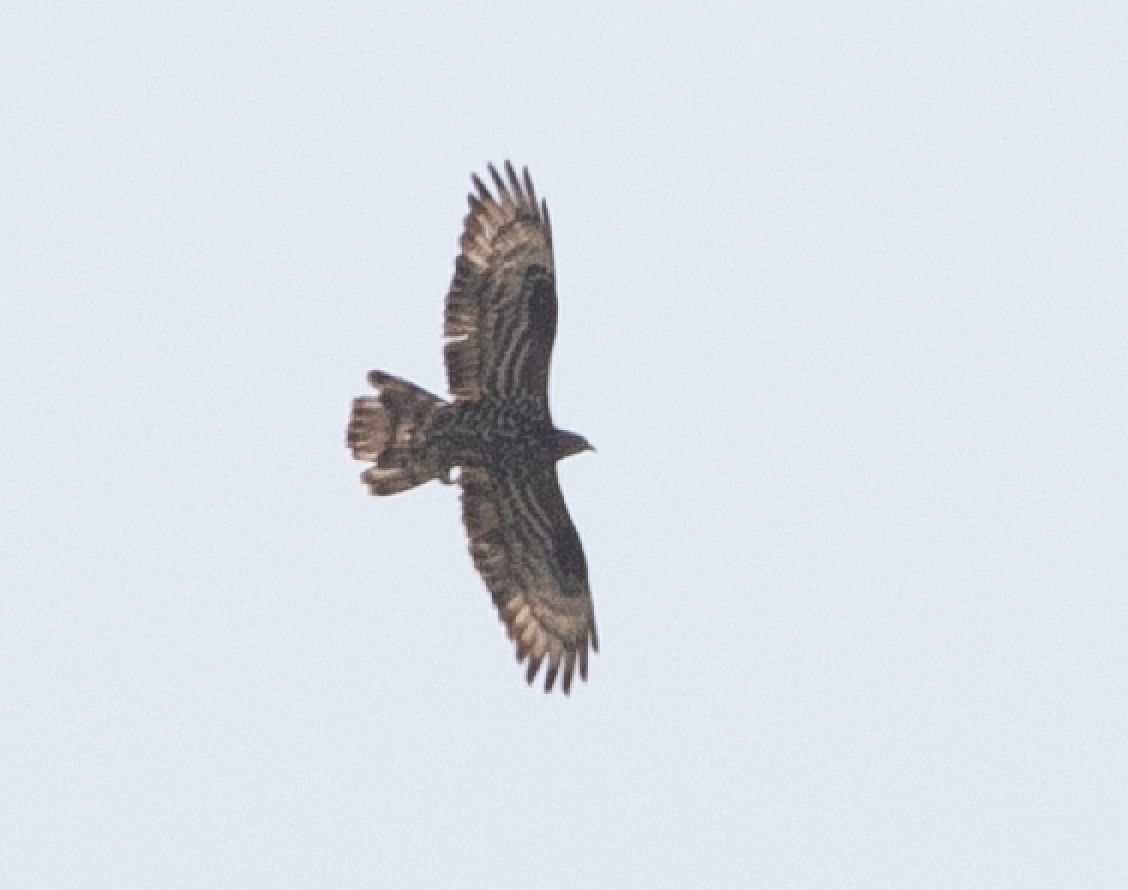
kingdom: Animalia
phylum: Chordata
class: Aves
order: Accipitriformes
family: Accipitridae
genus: Pernis
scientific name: Pernis apivorus
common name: European honey buzzard
